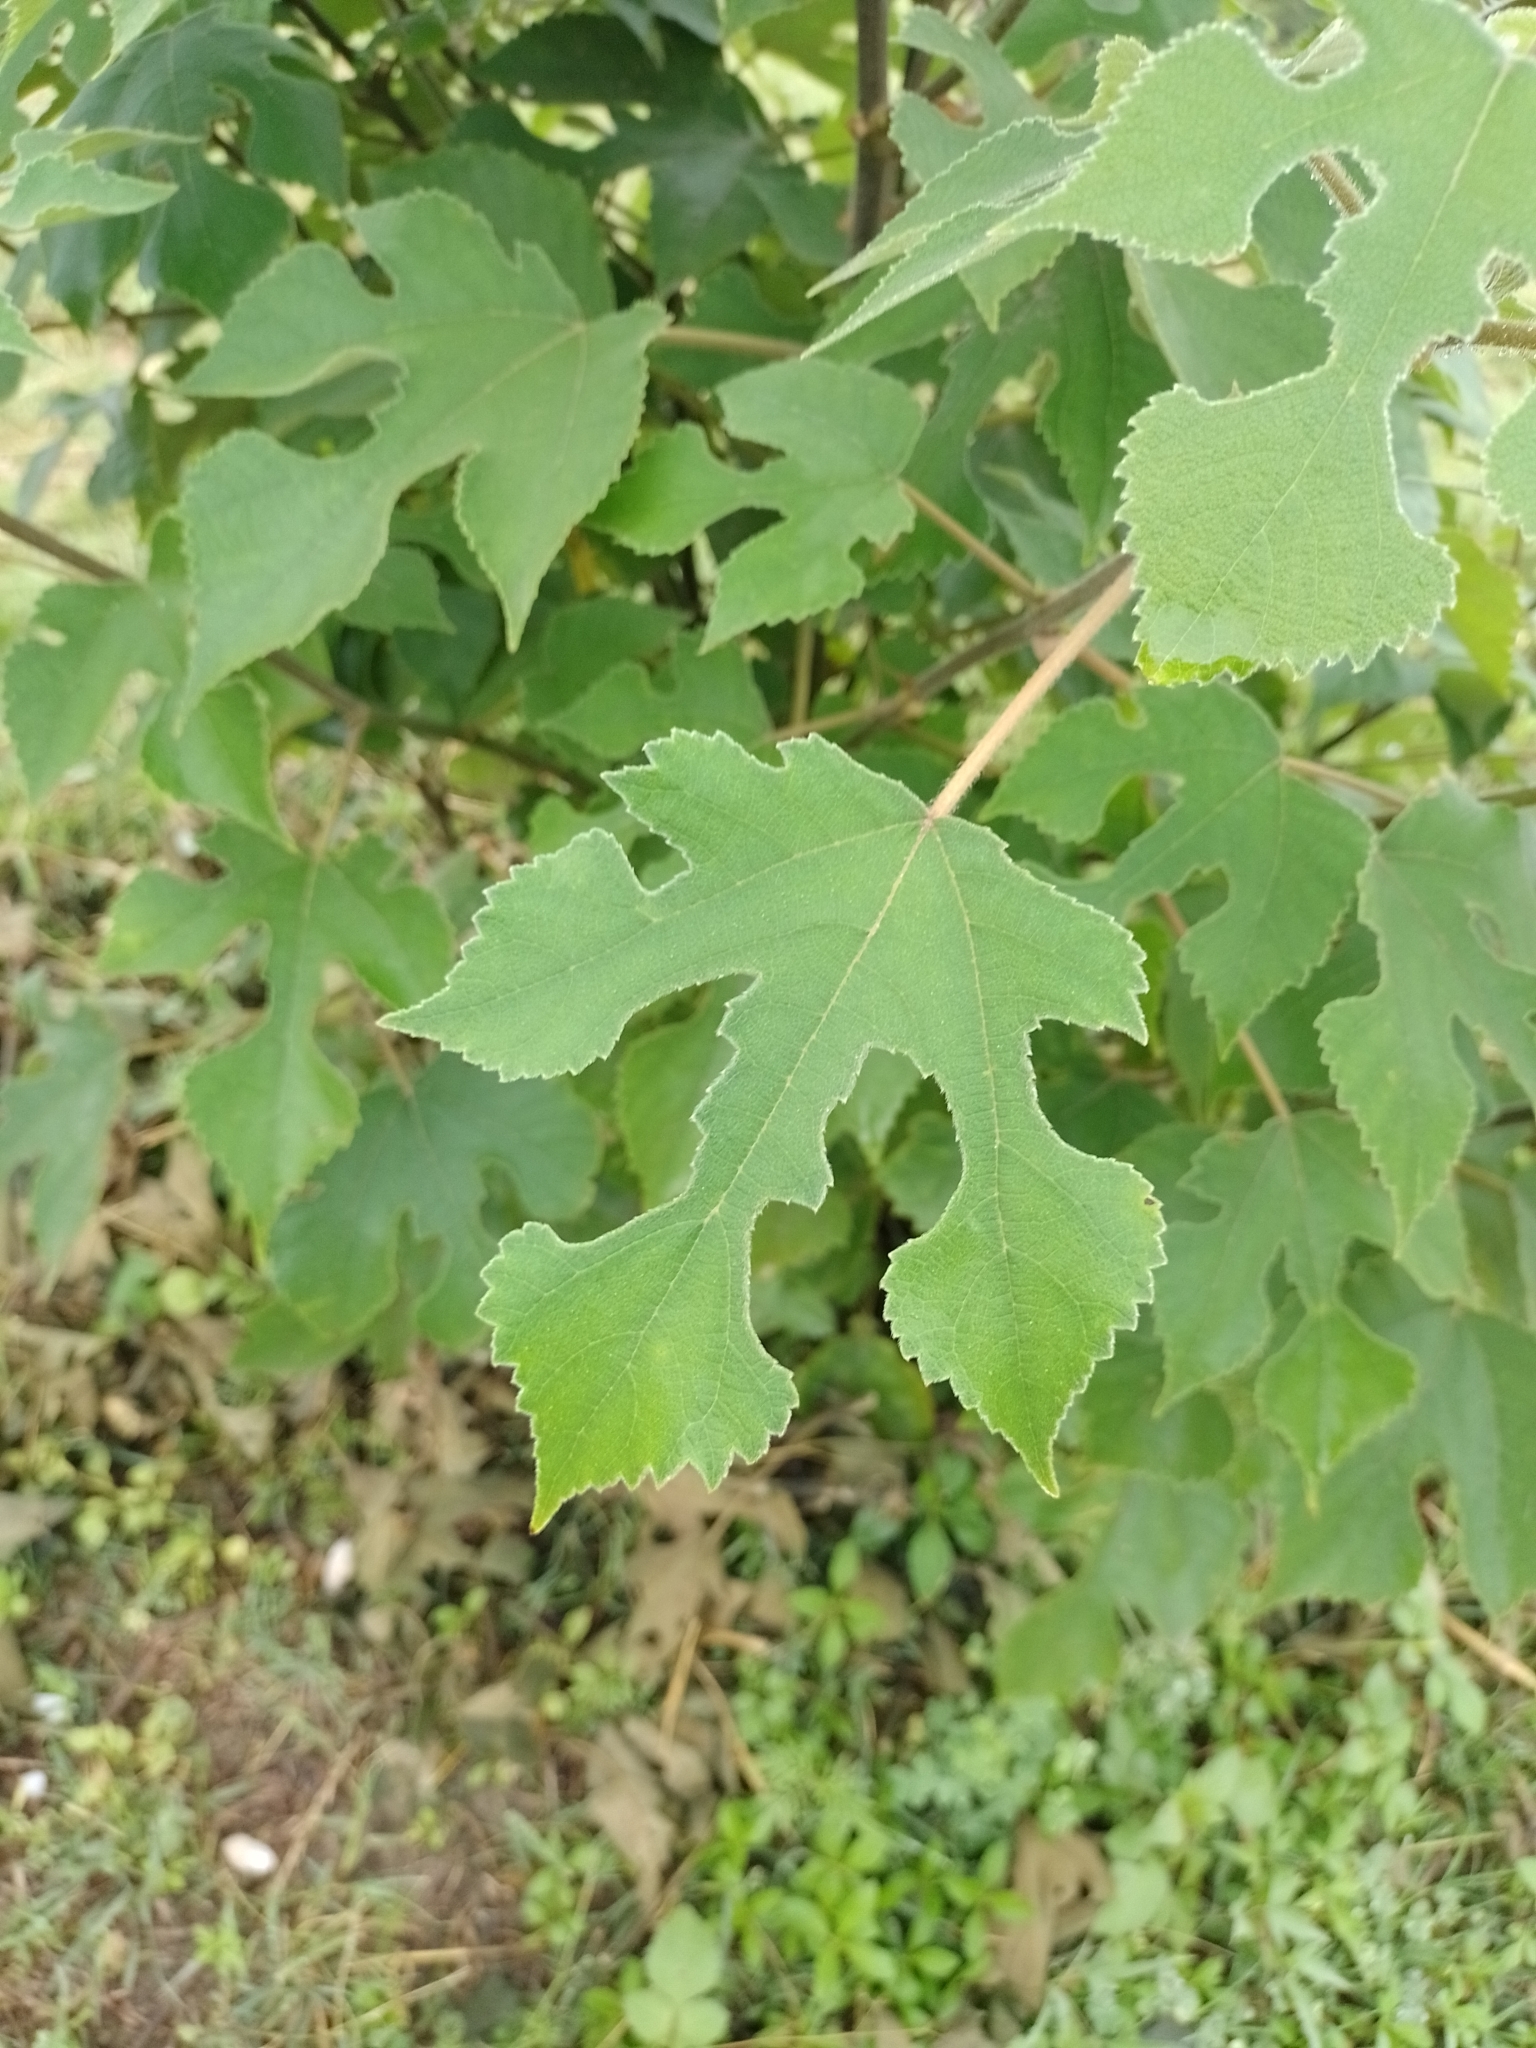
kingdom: Plantae
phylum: Tracheophyta
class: Magnoliopsida
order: Rosales
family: Moraceae
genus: Broussonetia
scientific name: Broussonetia papyrifera
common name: Paper mulberry
